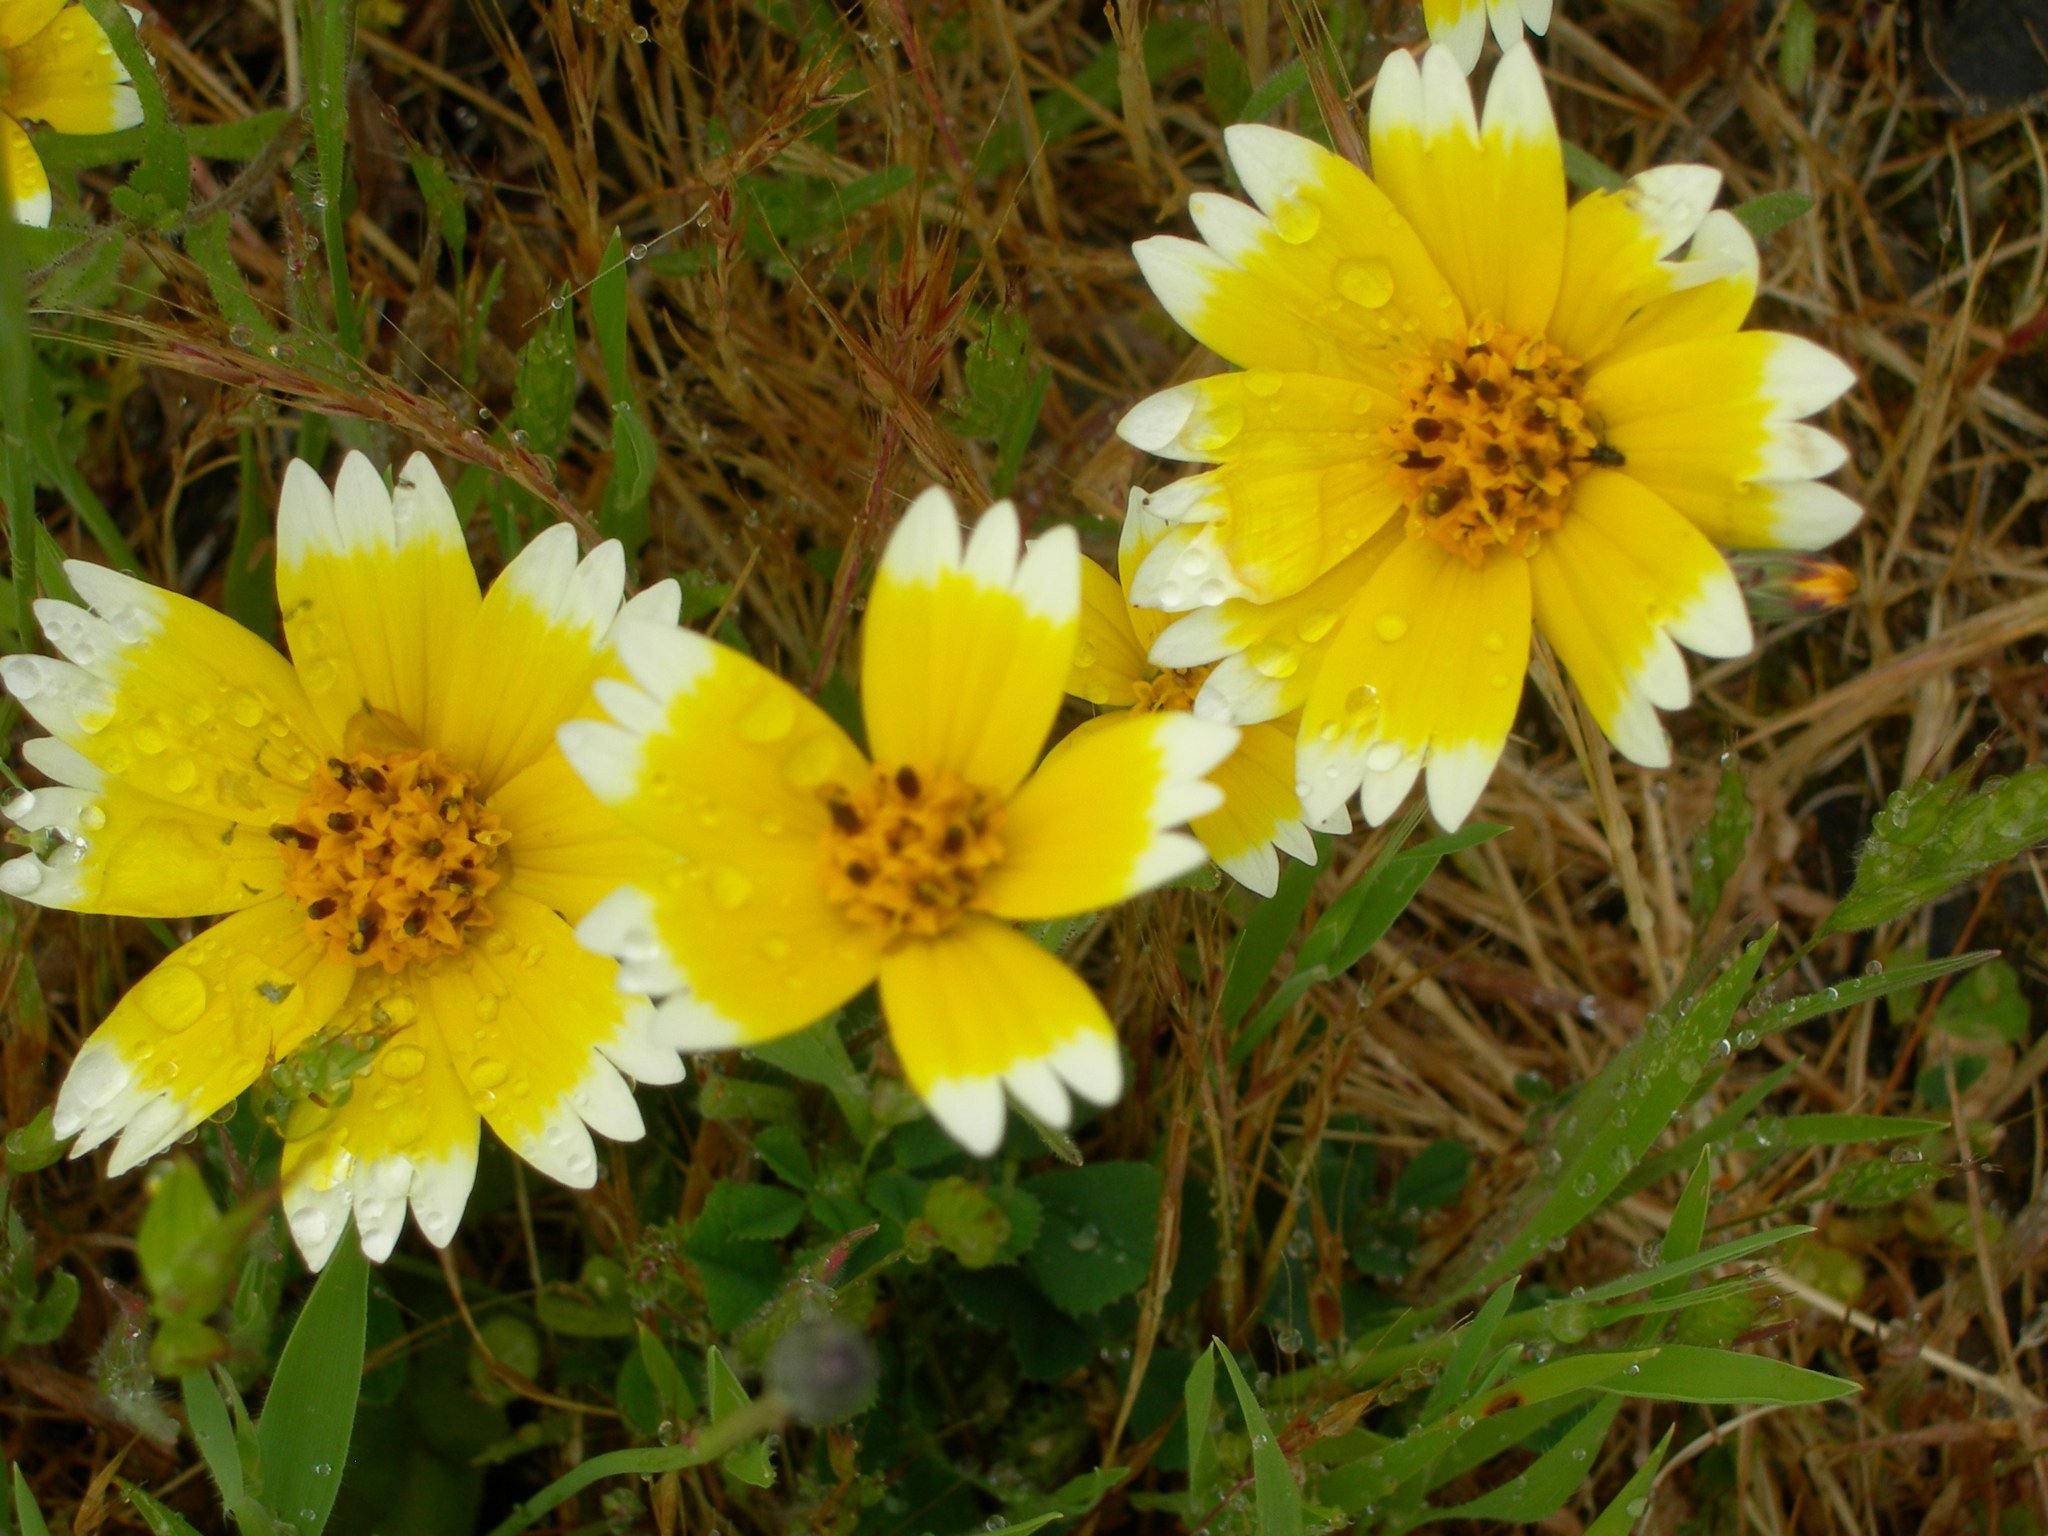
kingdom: Plantae
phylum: Tracheophyta
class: Magnoliopsida
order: Asterales
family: Asteraceae
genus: Layia
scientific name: Layia platyglossa
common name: Tidy-tips
